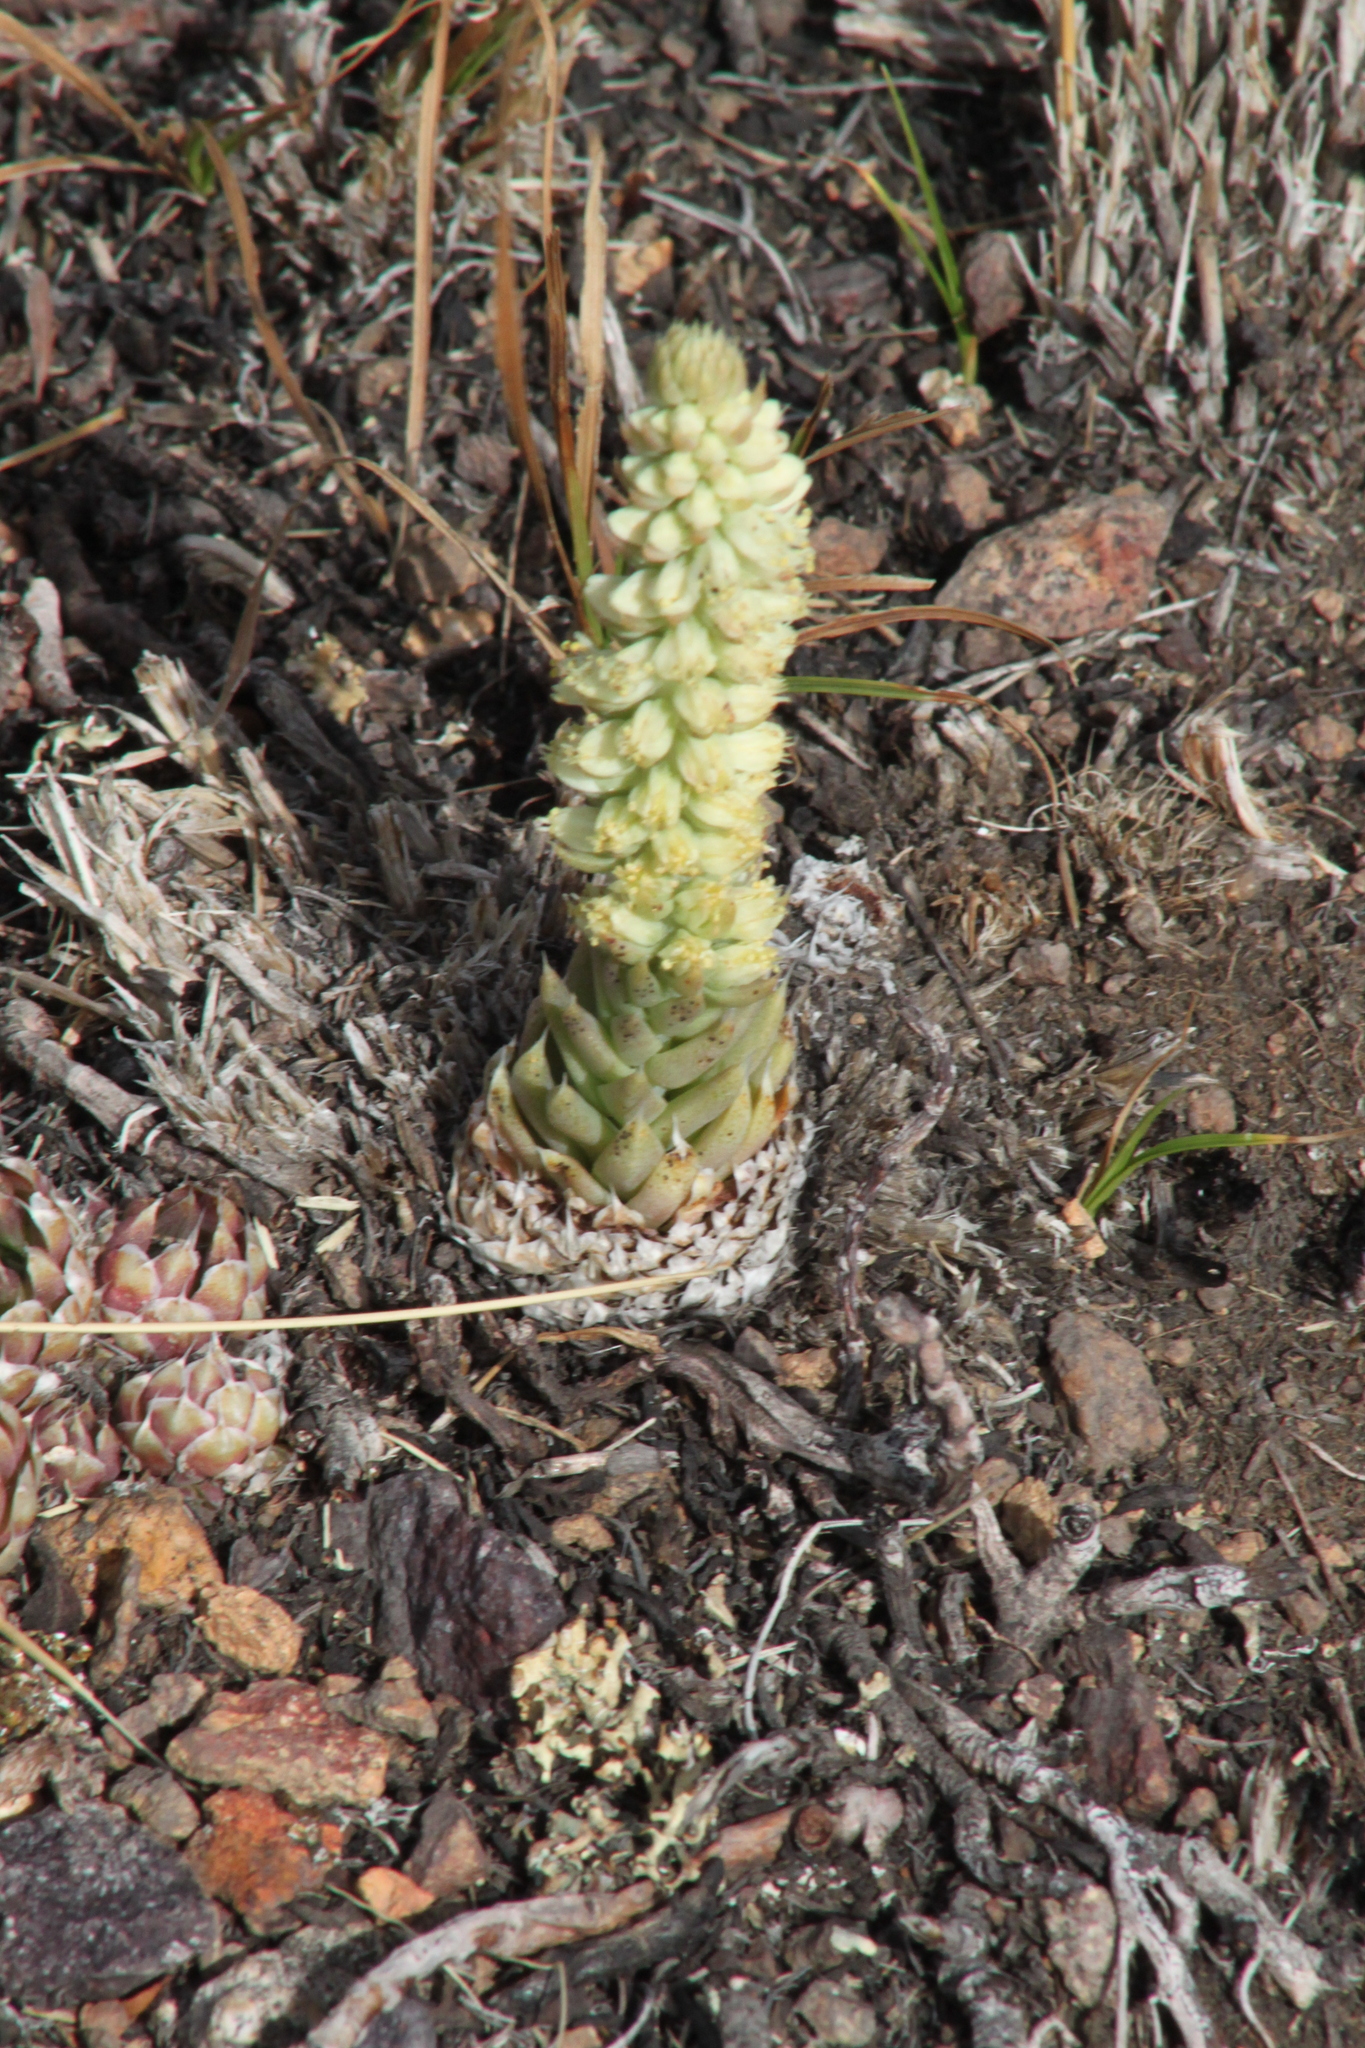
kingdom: Plantae
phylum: Tracheophyta
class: Magnoliopsida
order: Saxifragales
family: Crassulaceae
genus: Orostachys
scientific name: Orostachys spinosa
